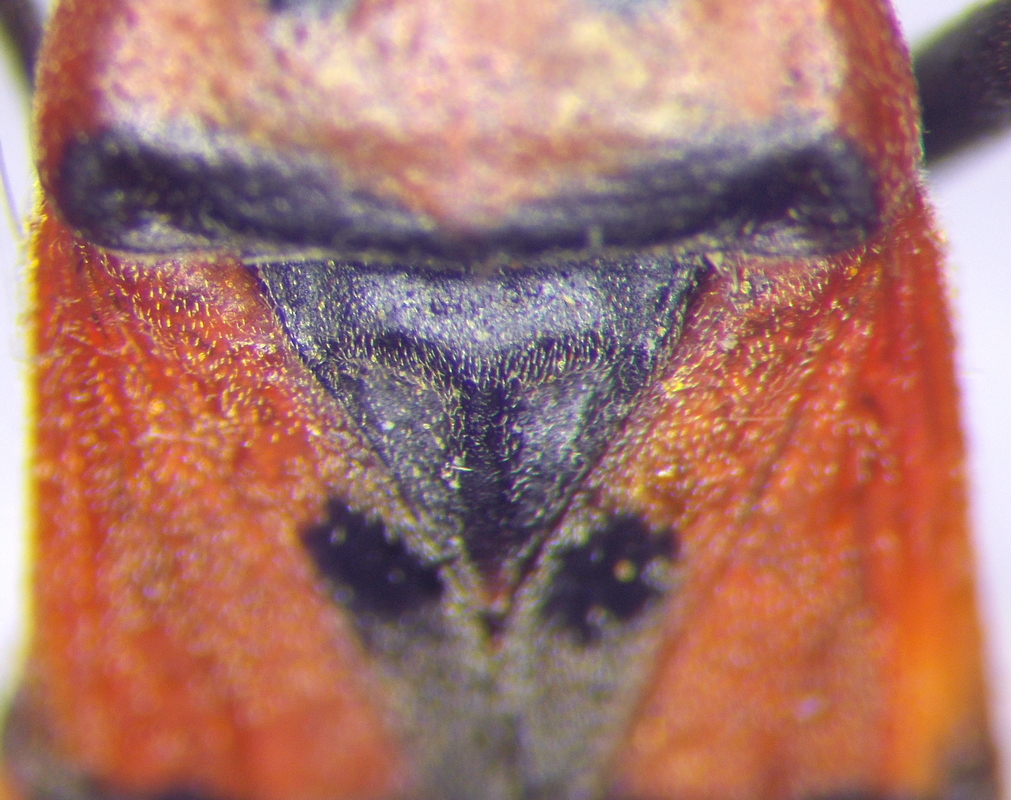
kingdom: Animalia
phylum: Arthropoda
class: Insecta
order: Hemiptera
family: Lygaeidae
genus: Lygaeus
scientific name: Lygaeus equestris
